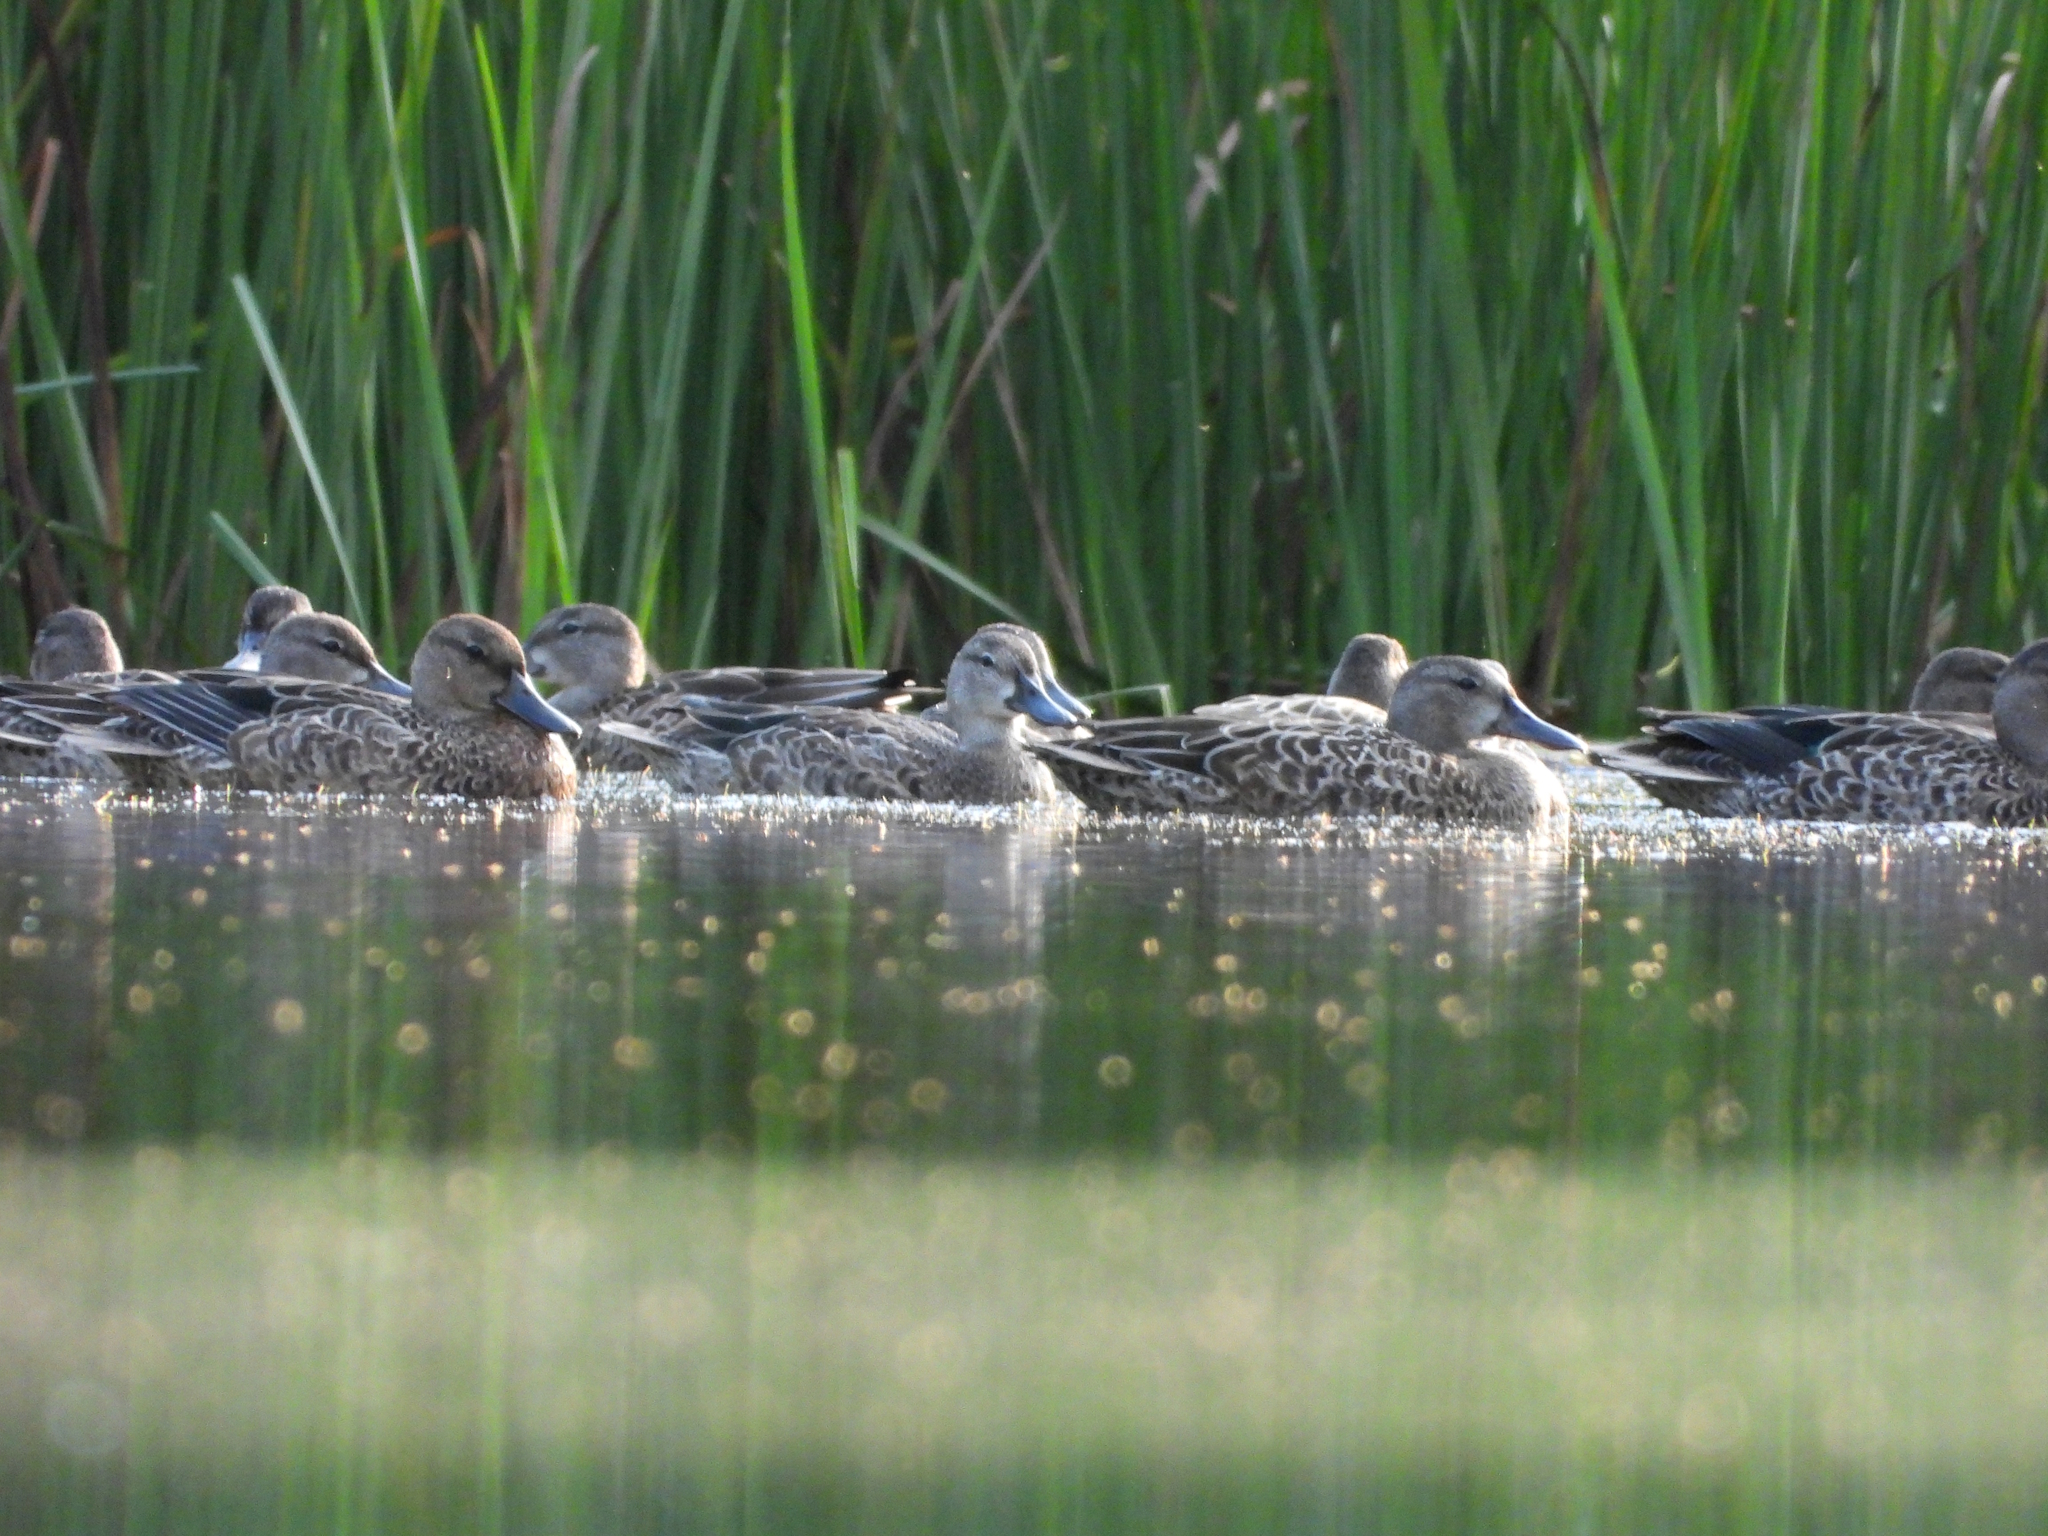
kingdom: Animalia
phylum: Chordata
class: Aves
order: Anseriformes
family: Anatidae
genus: Spatula
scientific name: Spatula discors
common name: Blue-winged teal
